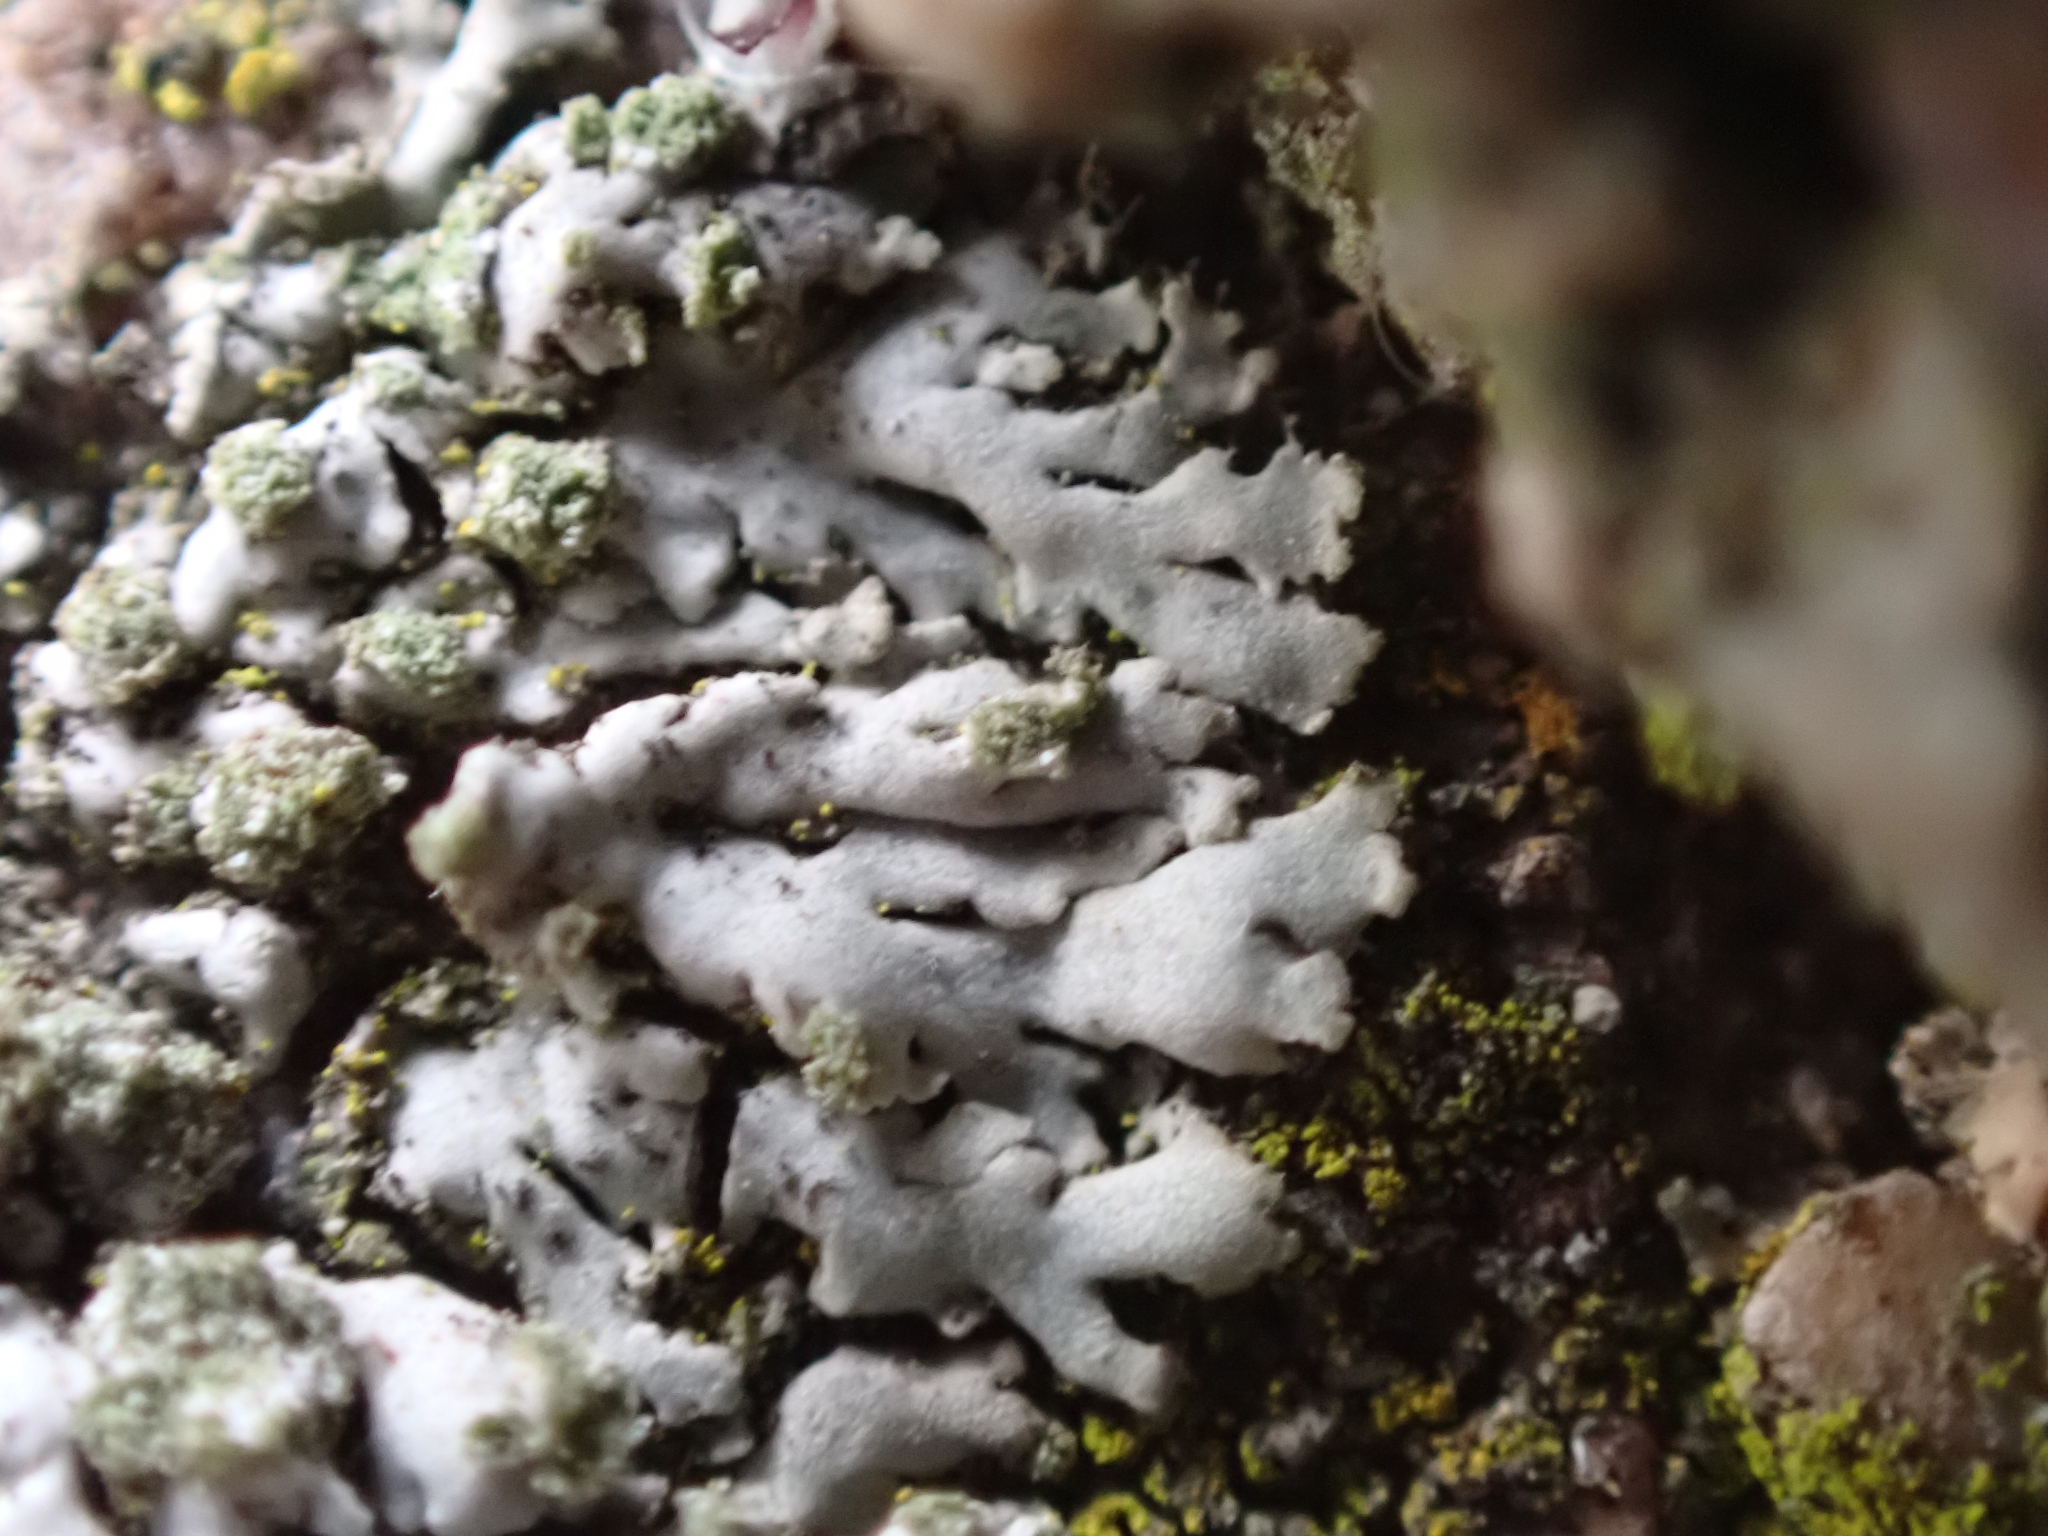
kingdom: Fungi
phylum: Ascomycota
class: Lecanoromycetes
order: Caliciales
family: Physciaceae
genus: Phaeophyscia
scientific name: Phaeophyscia orbicularis
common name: Mealy shadow lichen
